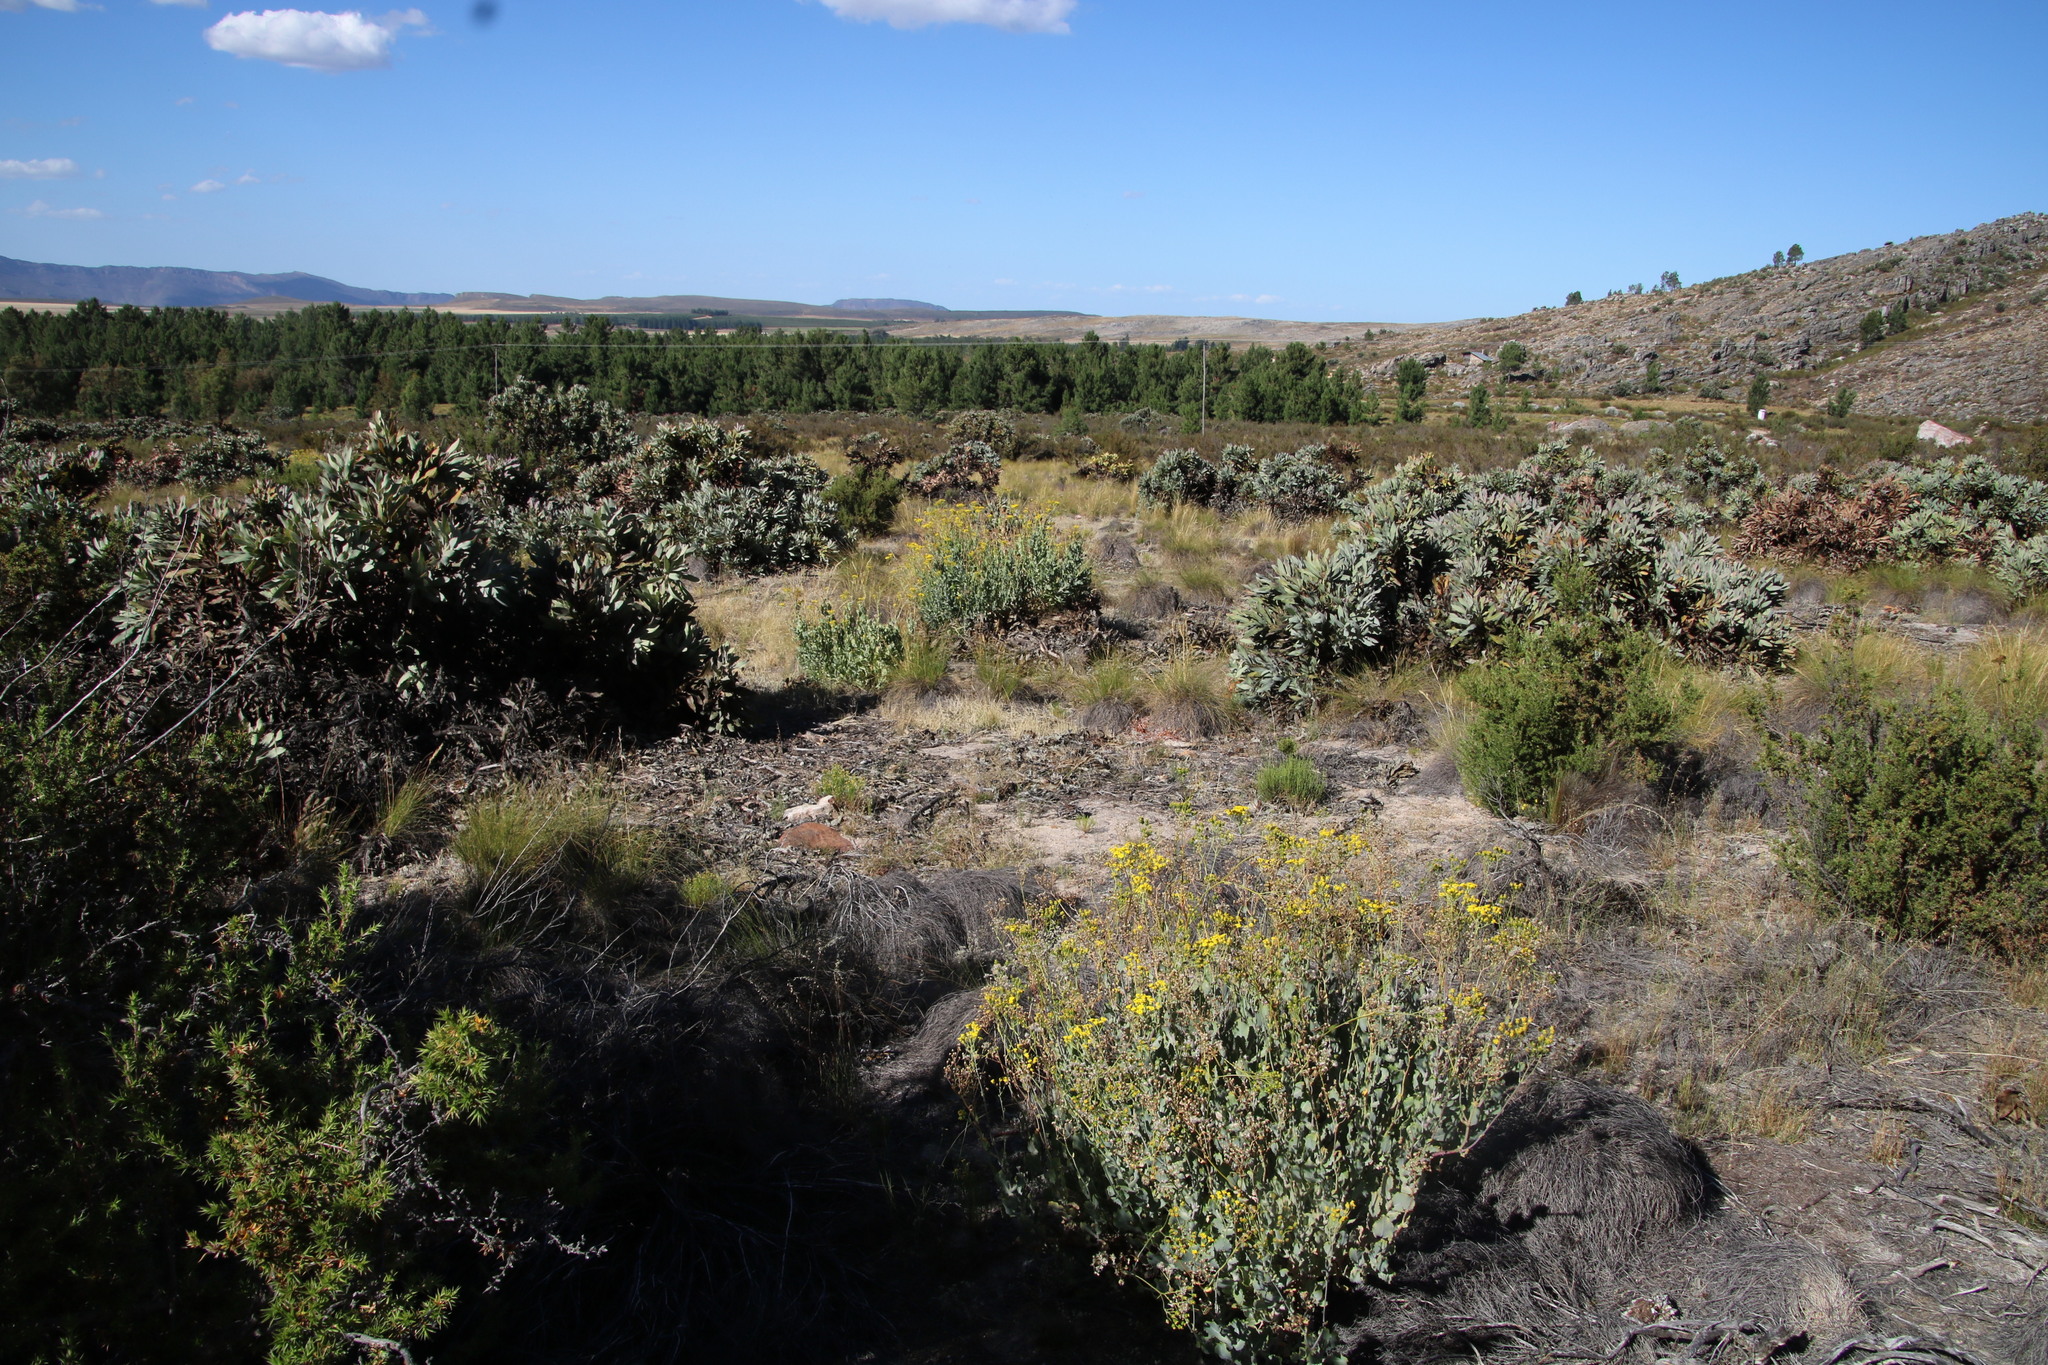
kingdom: Plantae
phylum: Tracheophyta
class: Magnoliopsida
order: Proteales
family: Proteaceae
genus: Protea
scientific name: Protea magnifica
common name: Bearded sugarbush
